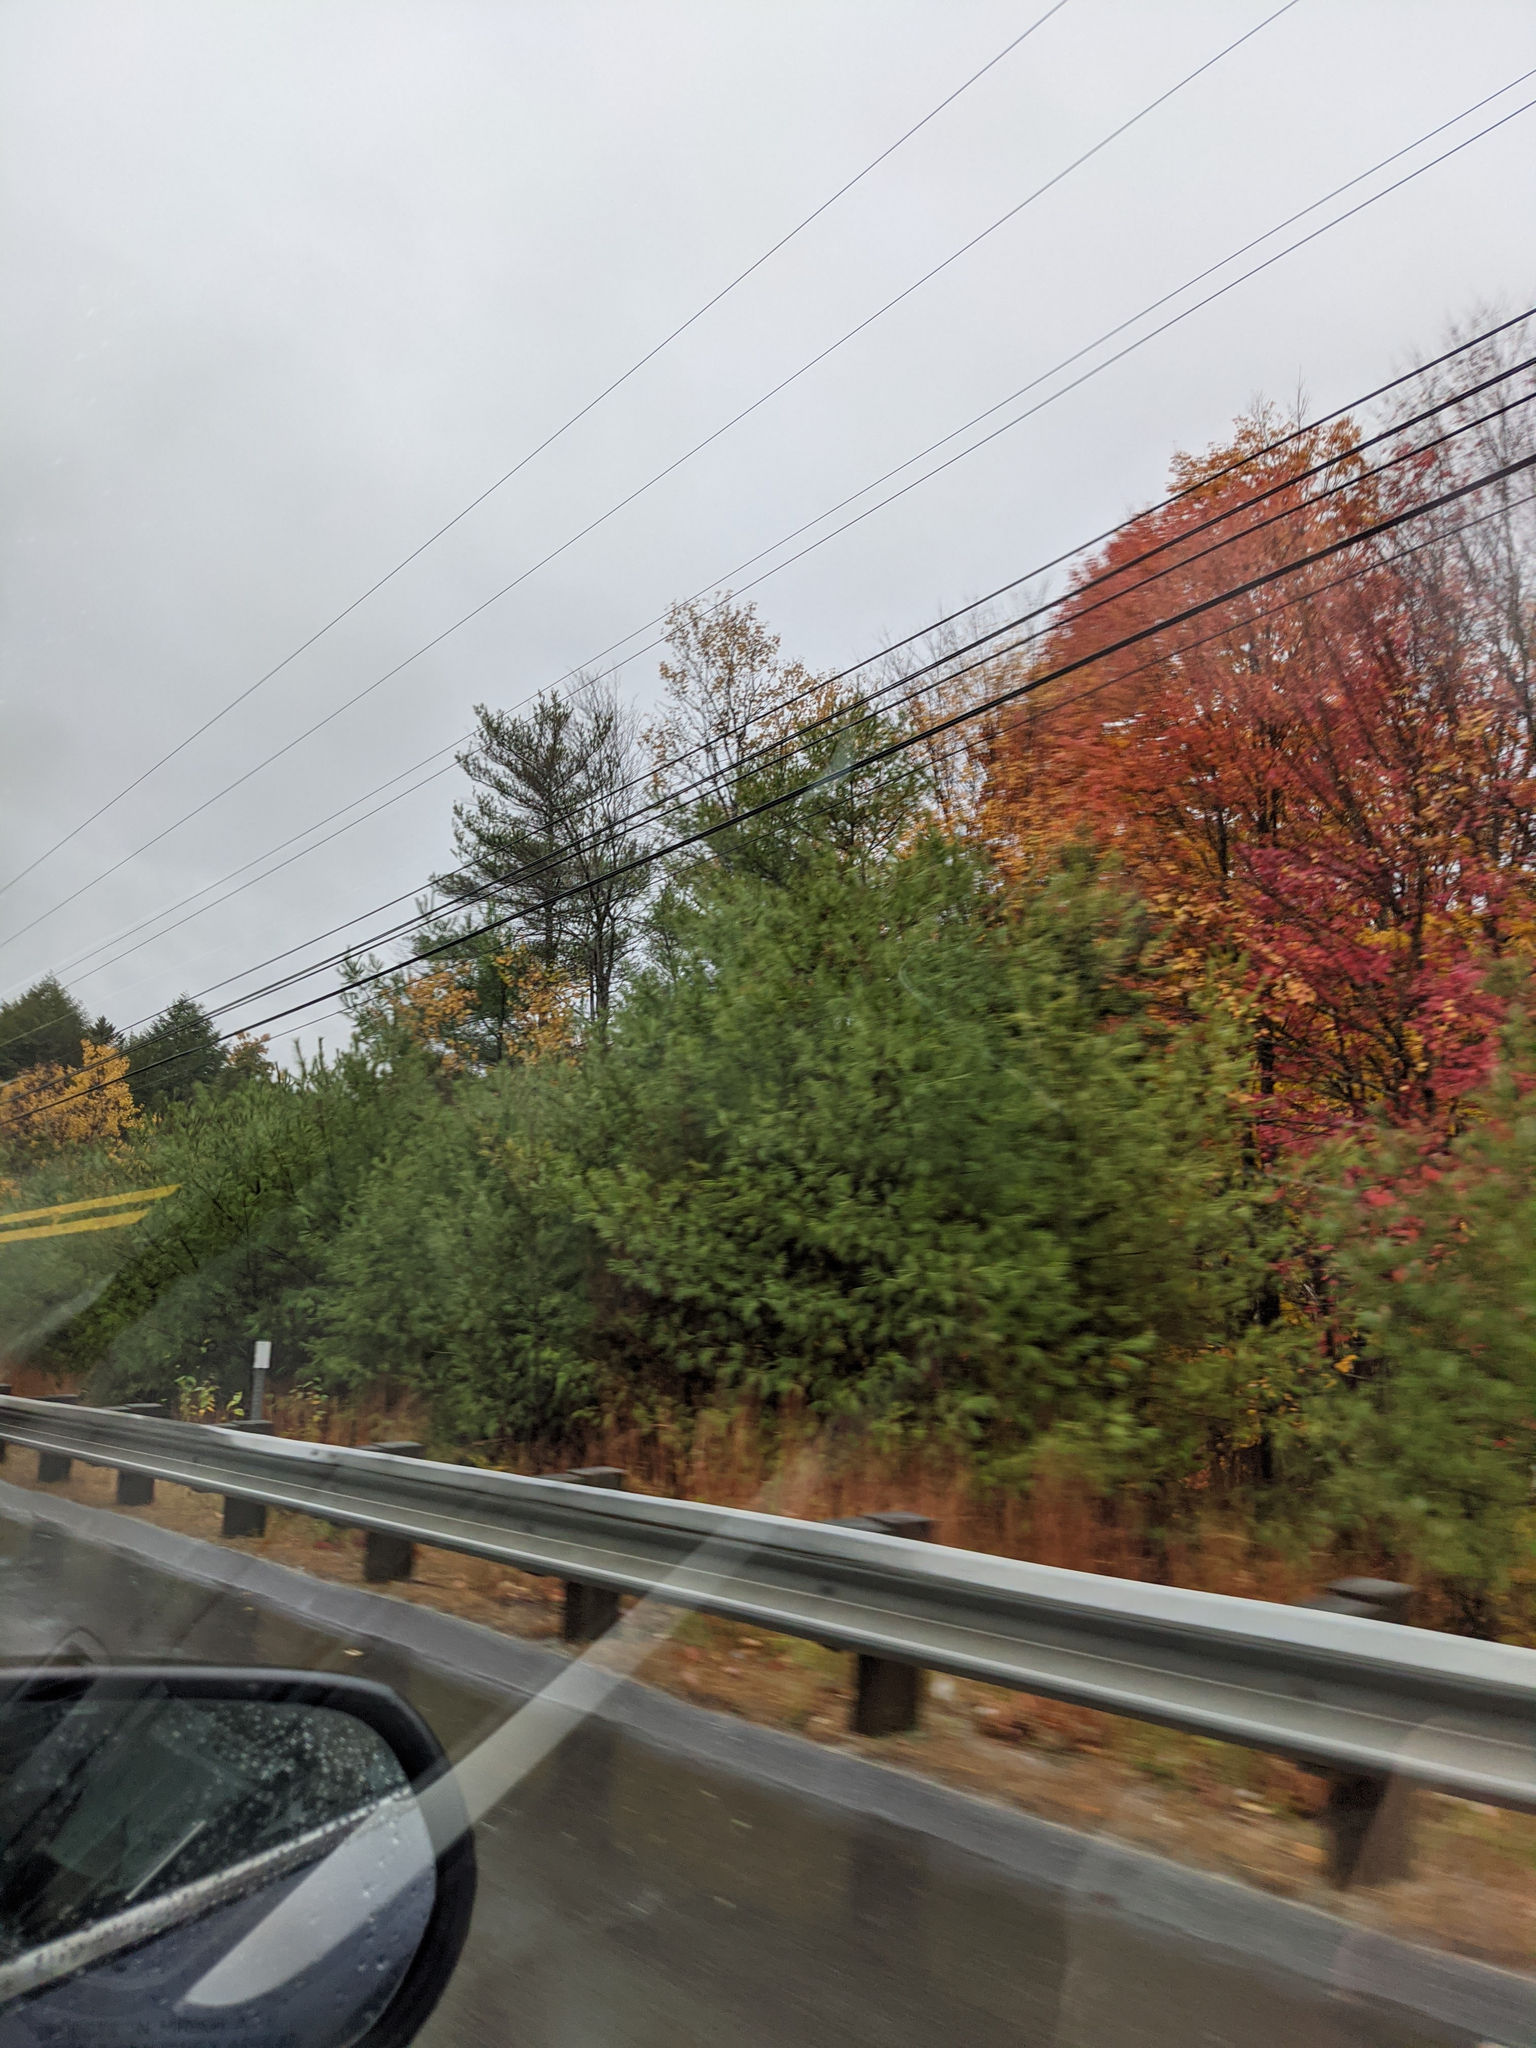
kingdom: Plantae
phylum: Tracheophyta
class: Pinopsida
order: Pinales
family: Pinaceae
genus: Pinus
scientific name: Pinus strobus
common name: Weymouth pine
